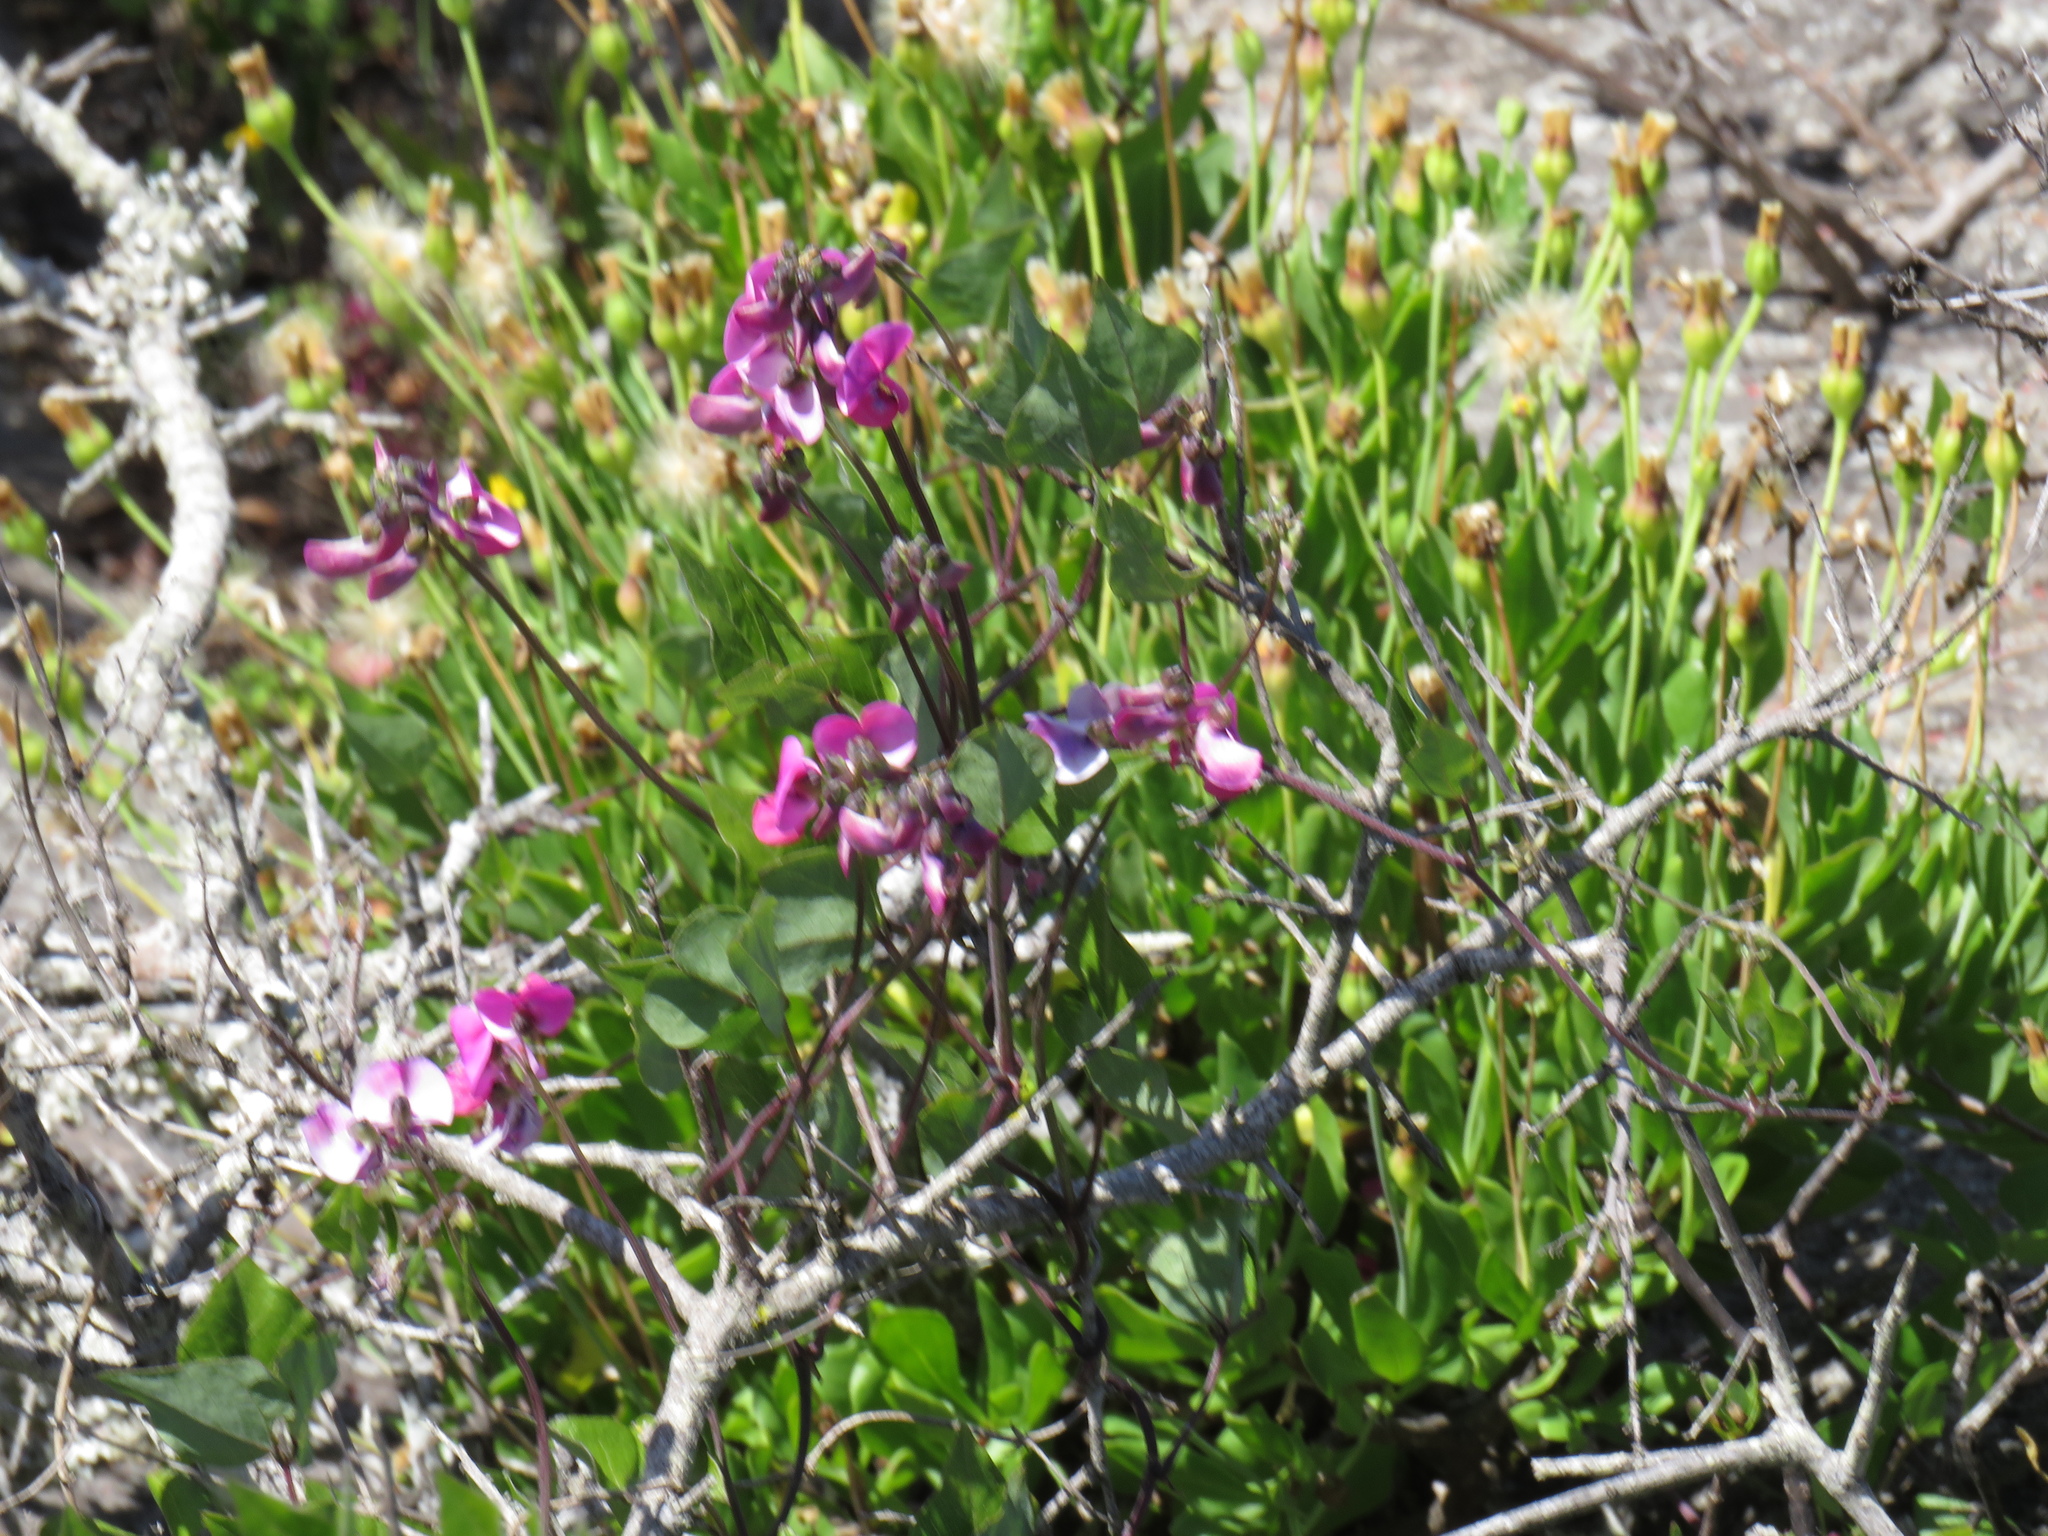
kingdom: Plantae
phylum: Tracheophyta
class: Magnoliopsida
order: Fabales
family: Fabaceae
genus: Dipogon
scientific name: Dipogon lignosus
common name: Okie bean
